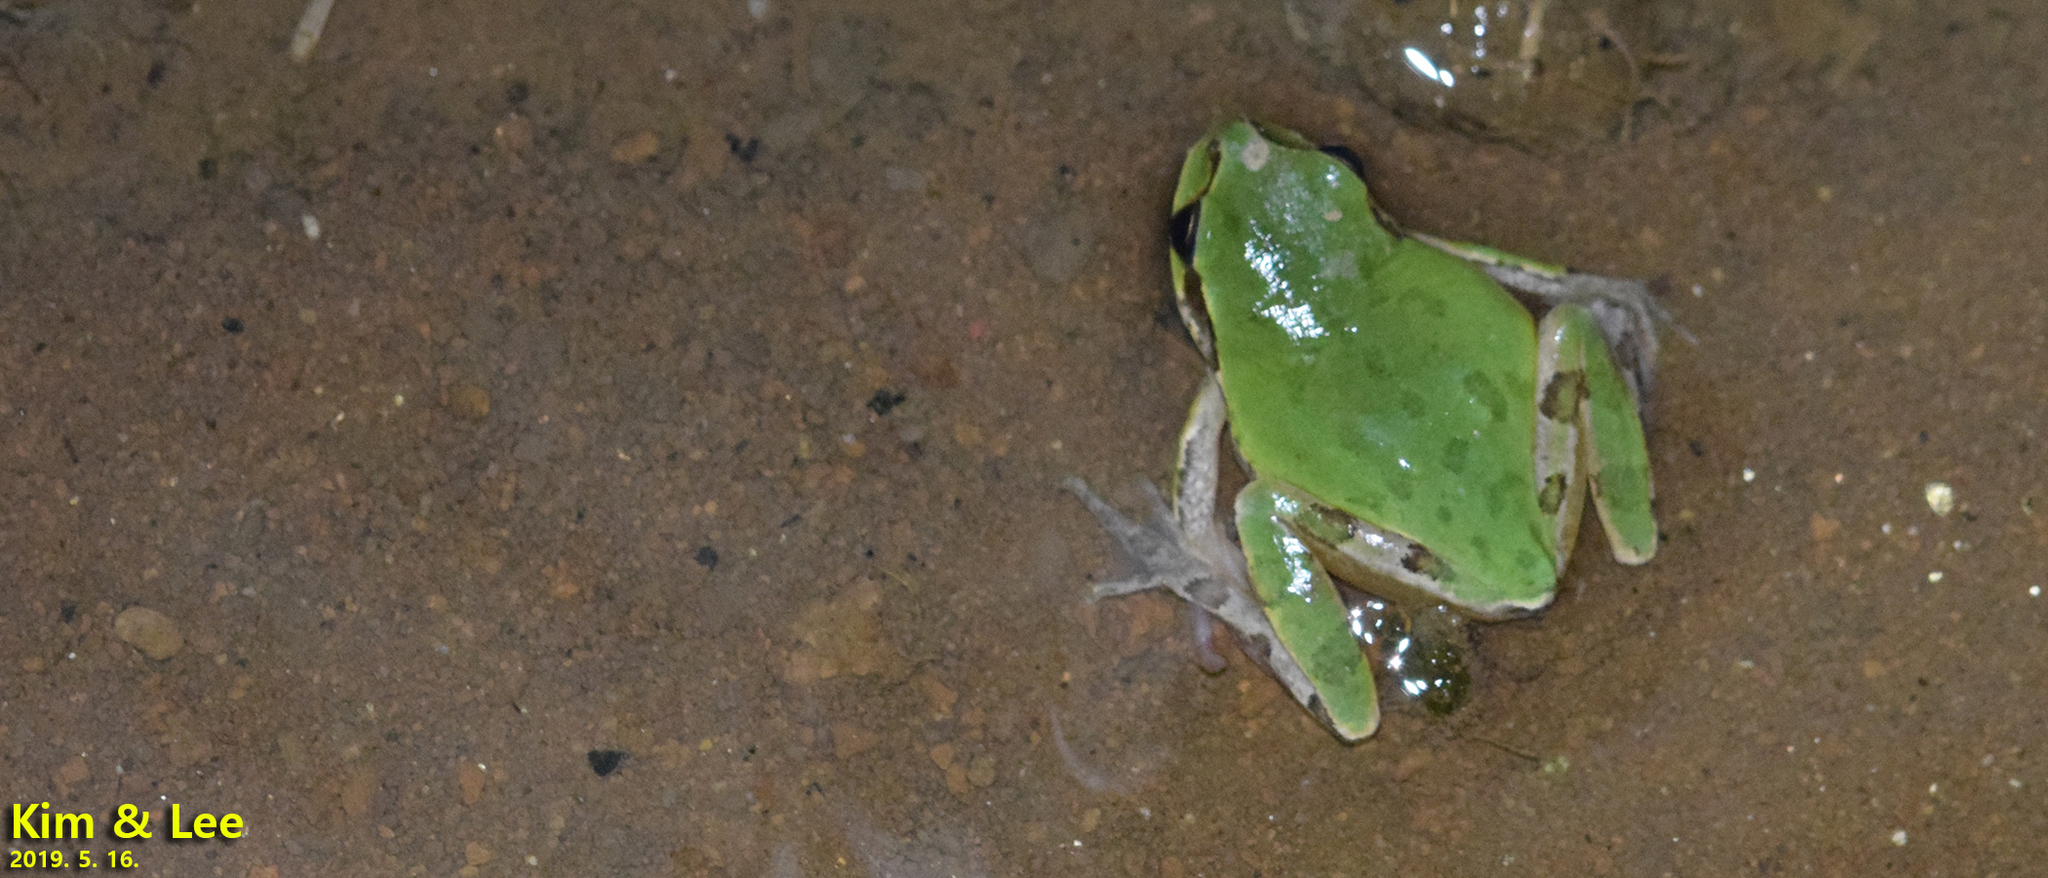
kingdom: Animalia
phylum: Chordata
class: Amphibia
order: Anura
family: Hylidae
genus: Dryophytes
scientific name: Dryophytes japonicus
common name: Japanese treefrog
